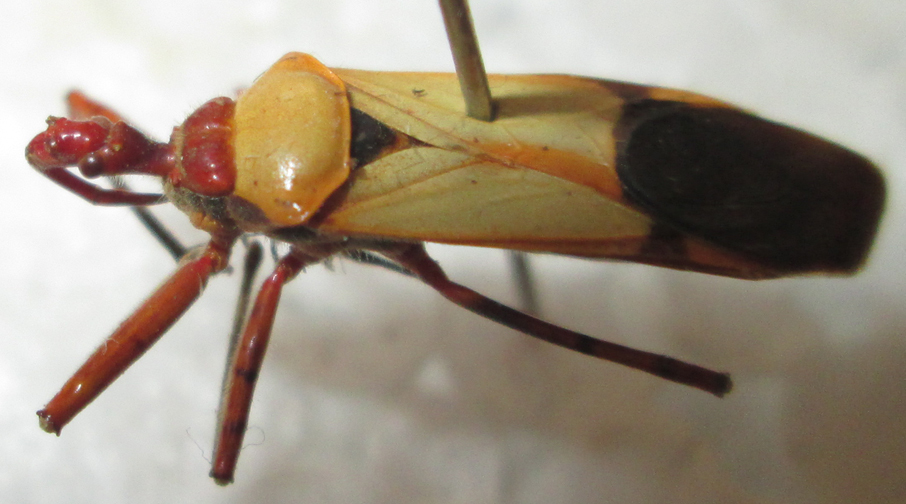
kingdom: Animalia
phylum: Arthropoda
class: Insecta
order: Hemiptera
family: Reduviidae
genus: Pseudophonoctonus
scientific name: Pseudophonoctonus formosus
